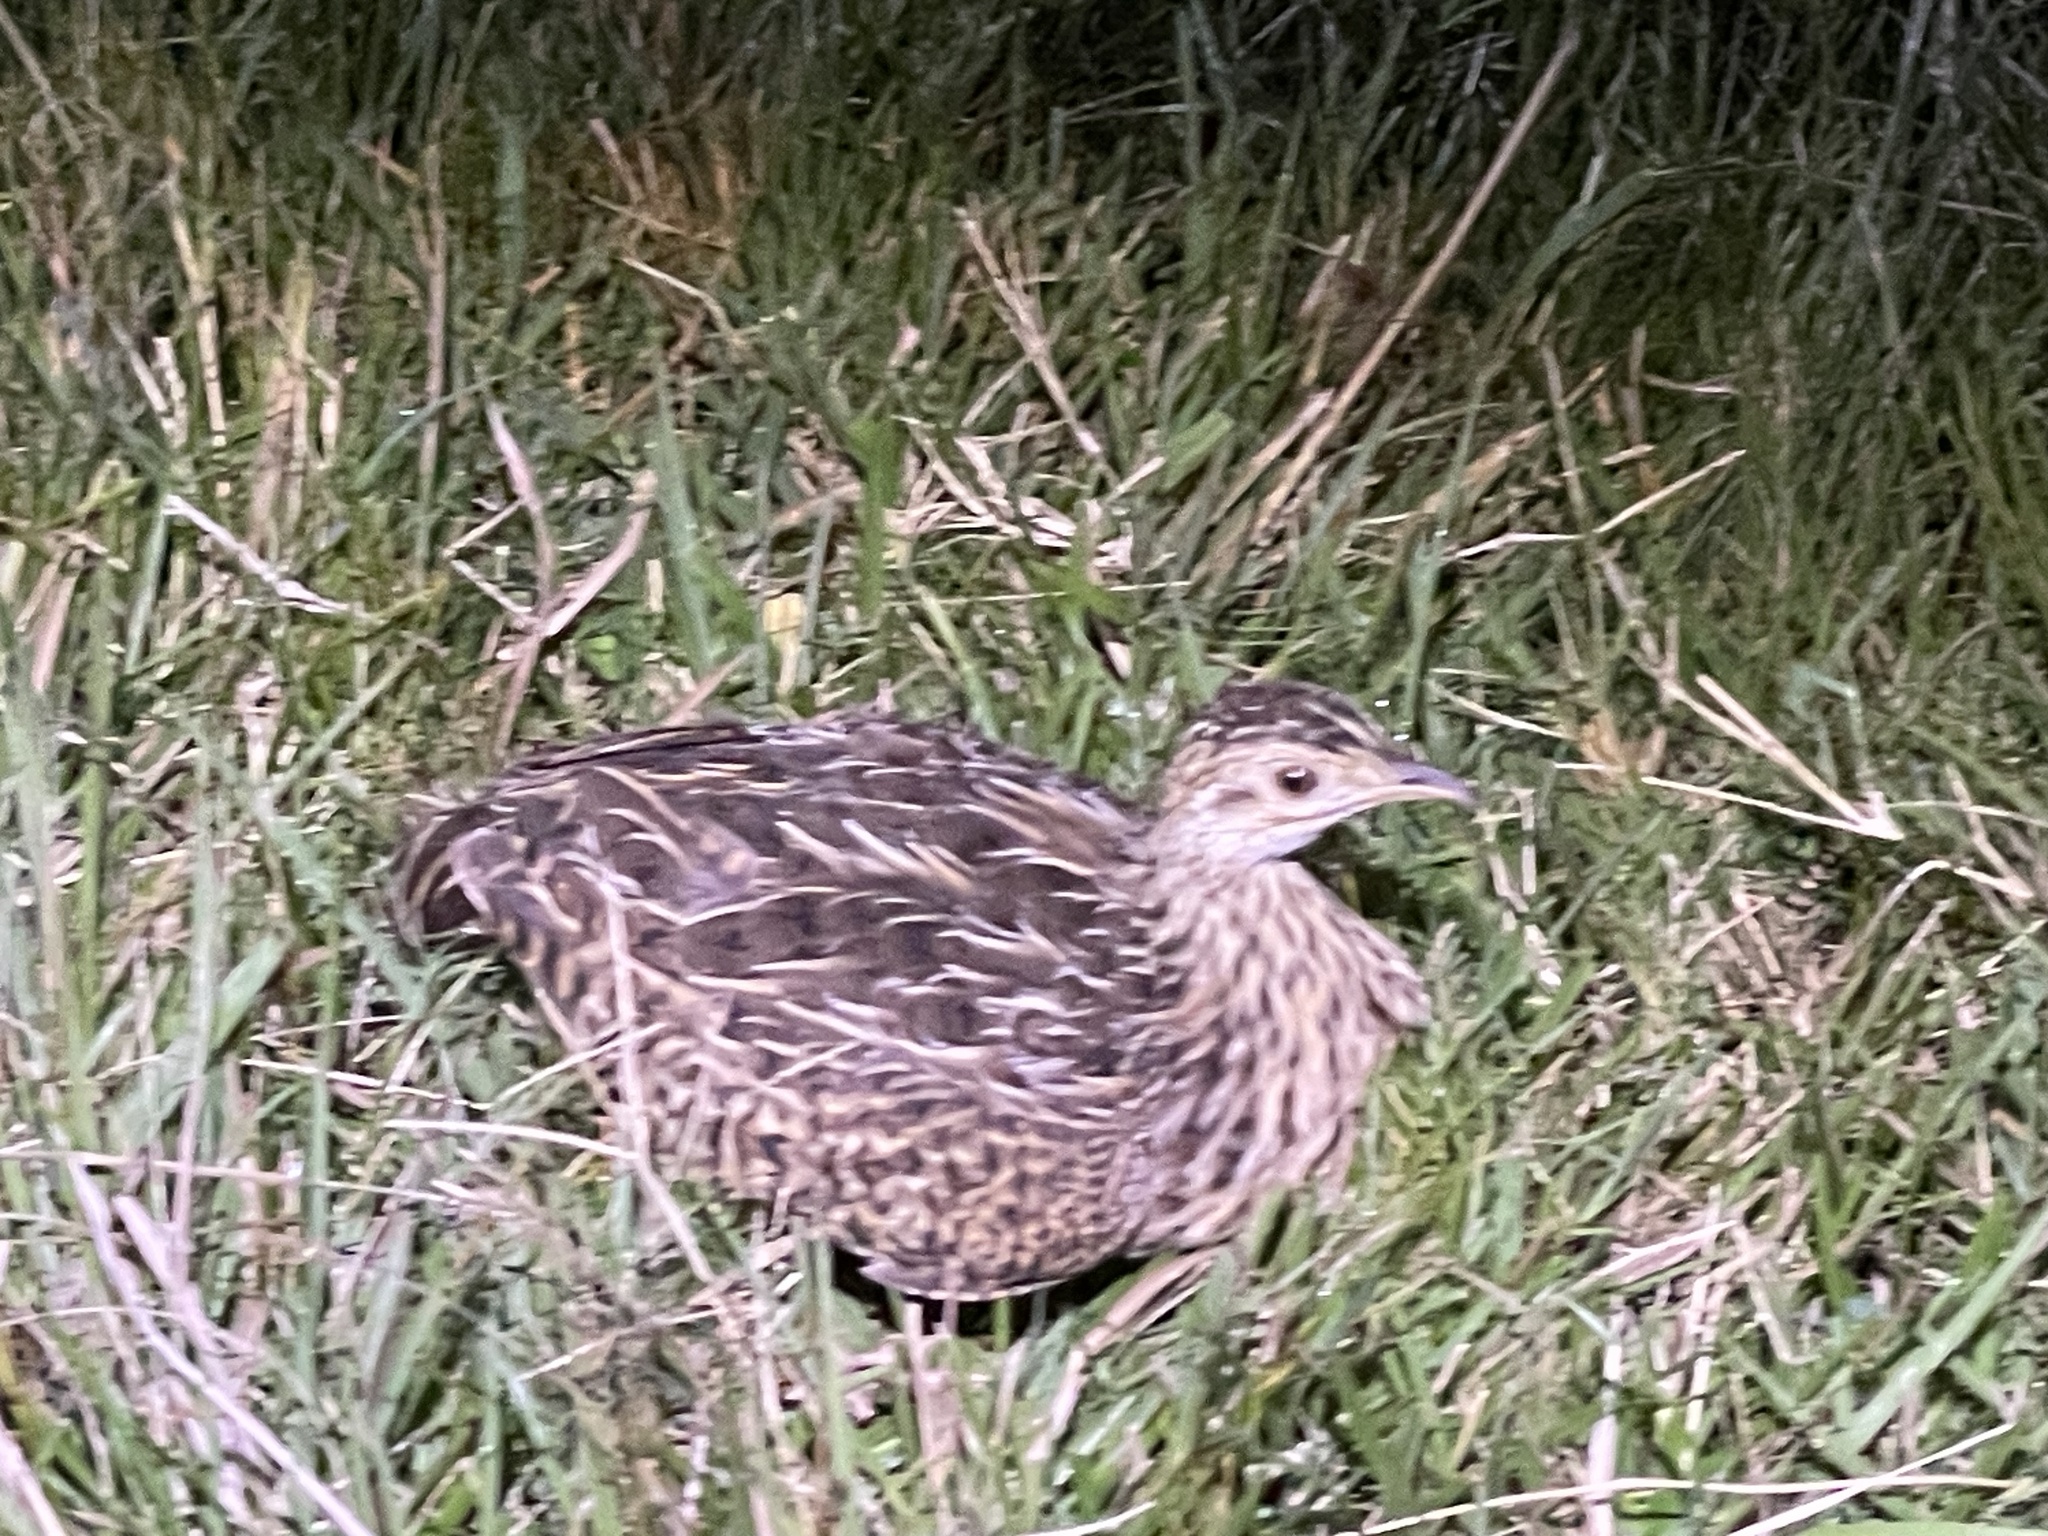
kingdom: Animalia
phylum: Chordata
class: Aves
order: Tinamiformes
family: Tinamidae
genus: Nothura
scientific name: Nothura maculosa
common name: Spotted nothura
